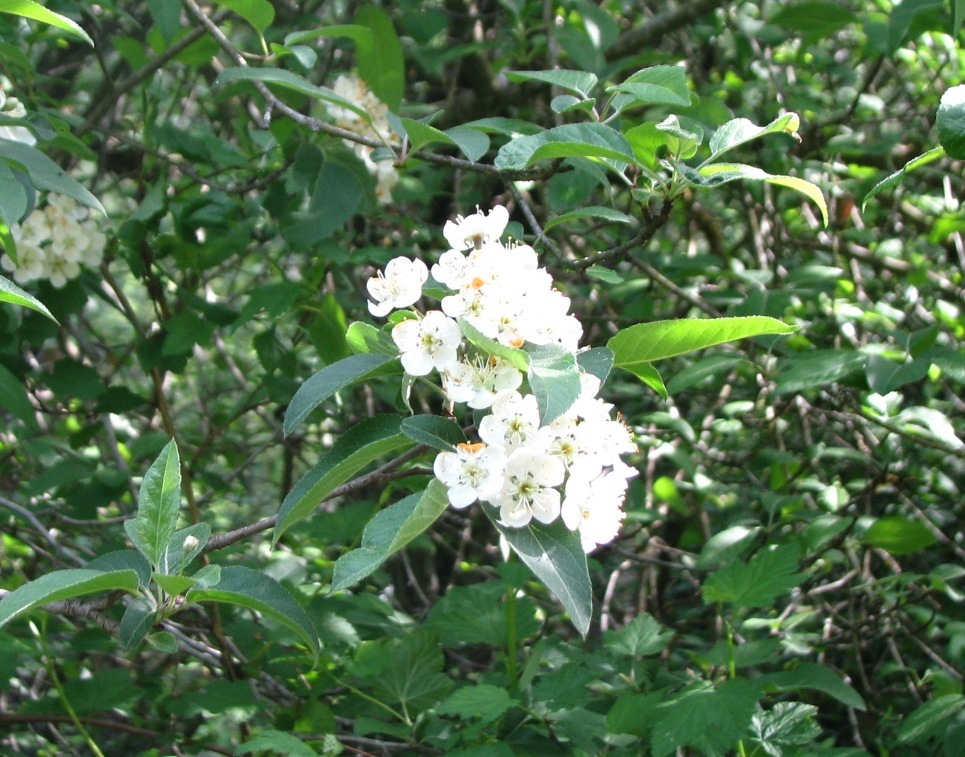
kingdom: Plantae
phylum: Tracheophyta
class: Magnoliopsida
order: Rosales
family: Rosaceae
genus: Malus
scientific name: Malus fusca
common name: Oregon crab apple
